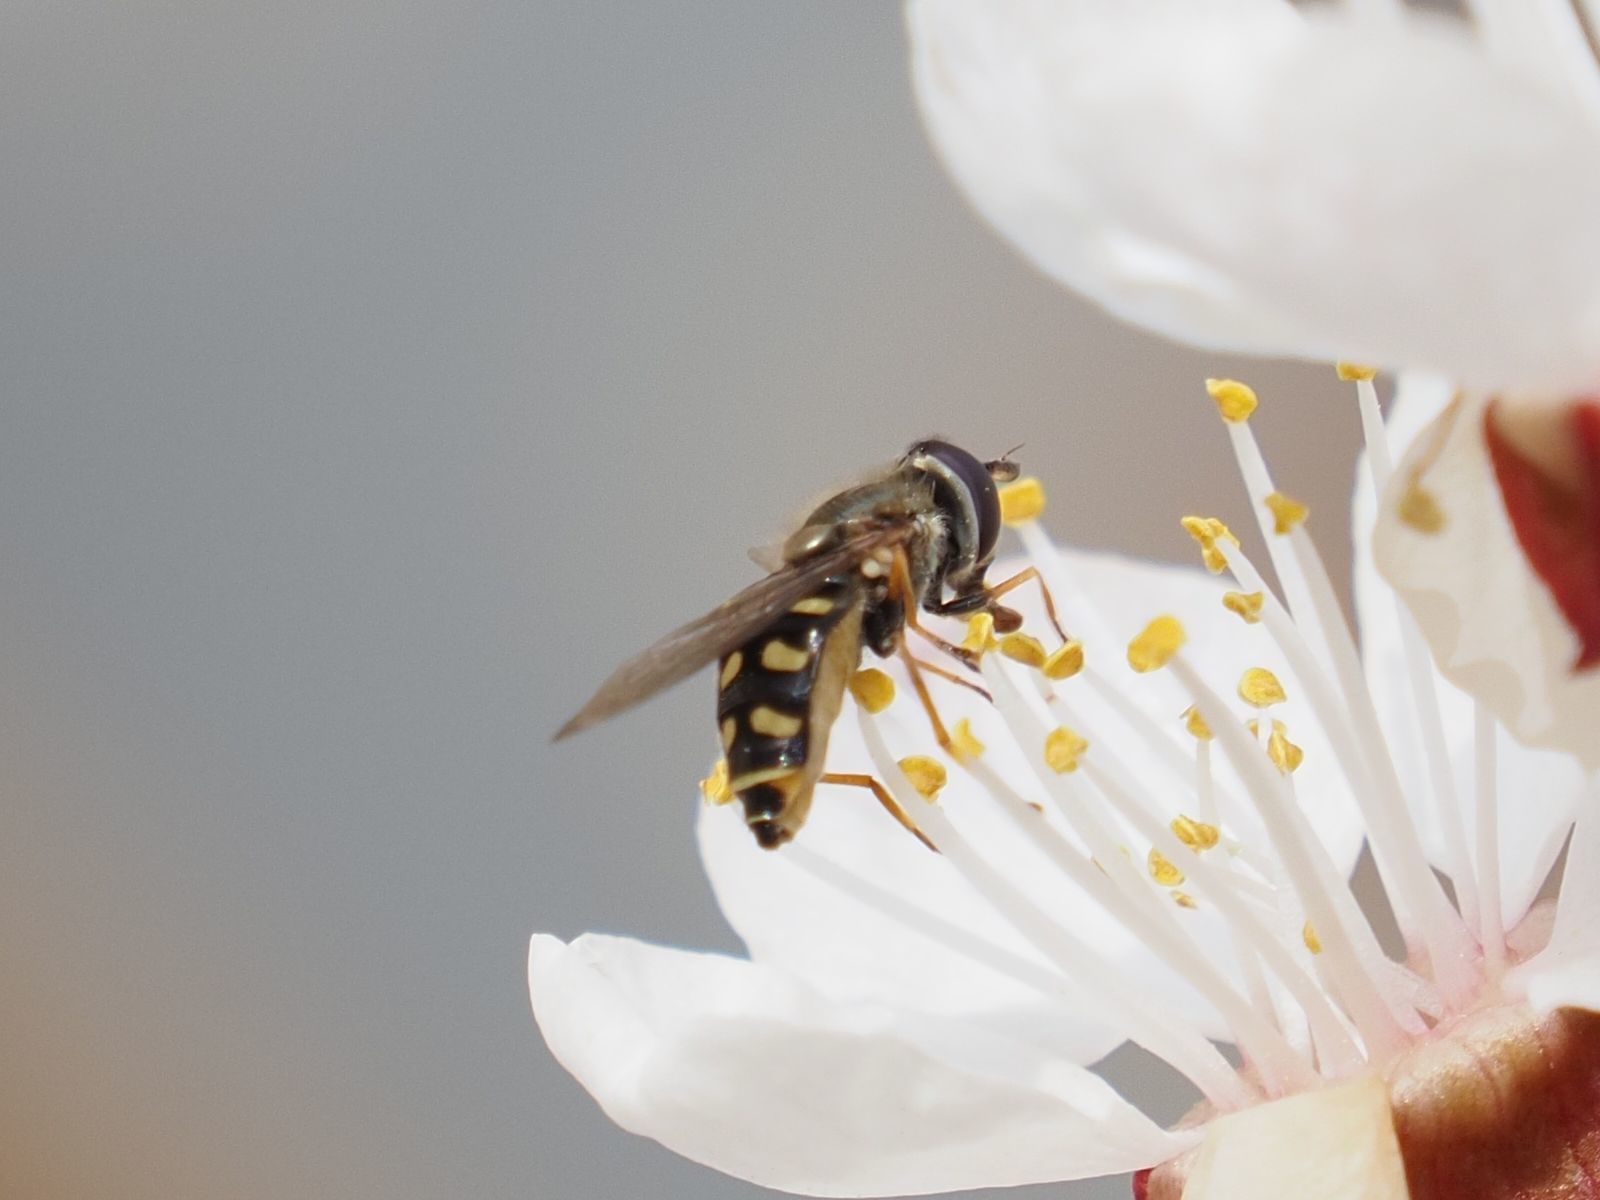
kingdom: Animalia
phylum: Arthropoda
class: Insecta
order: Diptera
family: Syrphidae
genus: Eupeodes
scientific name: Eupeodes luniger
